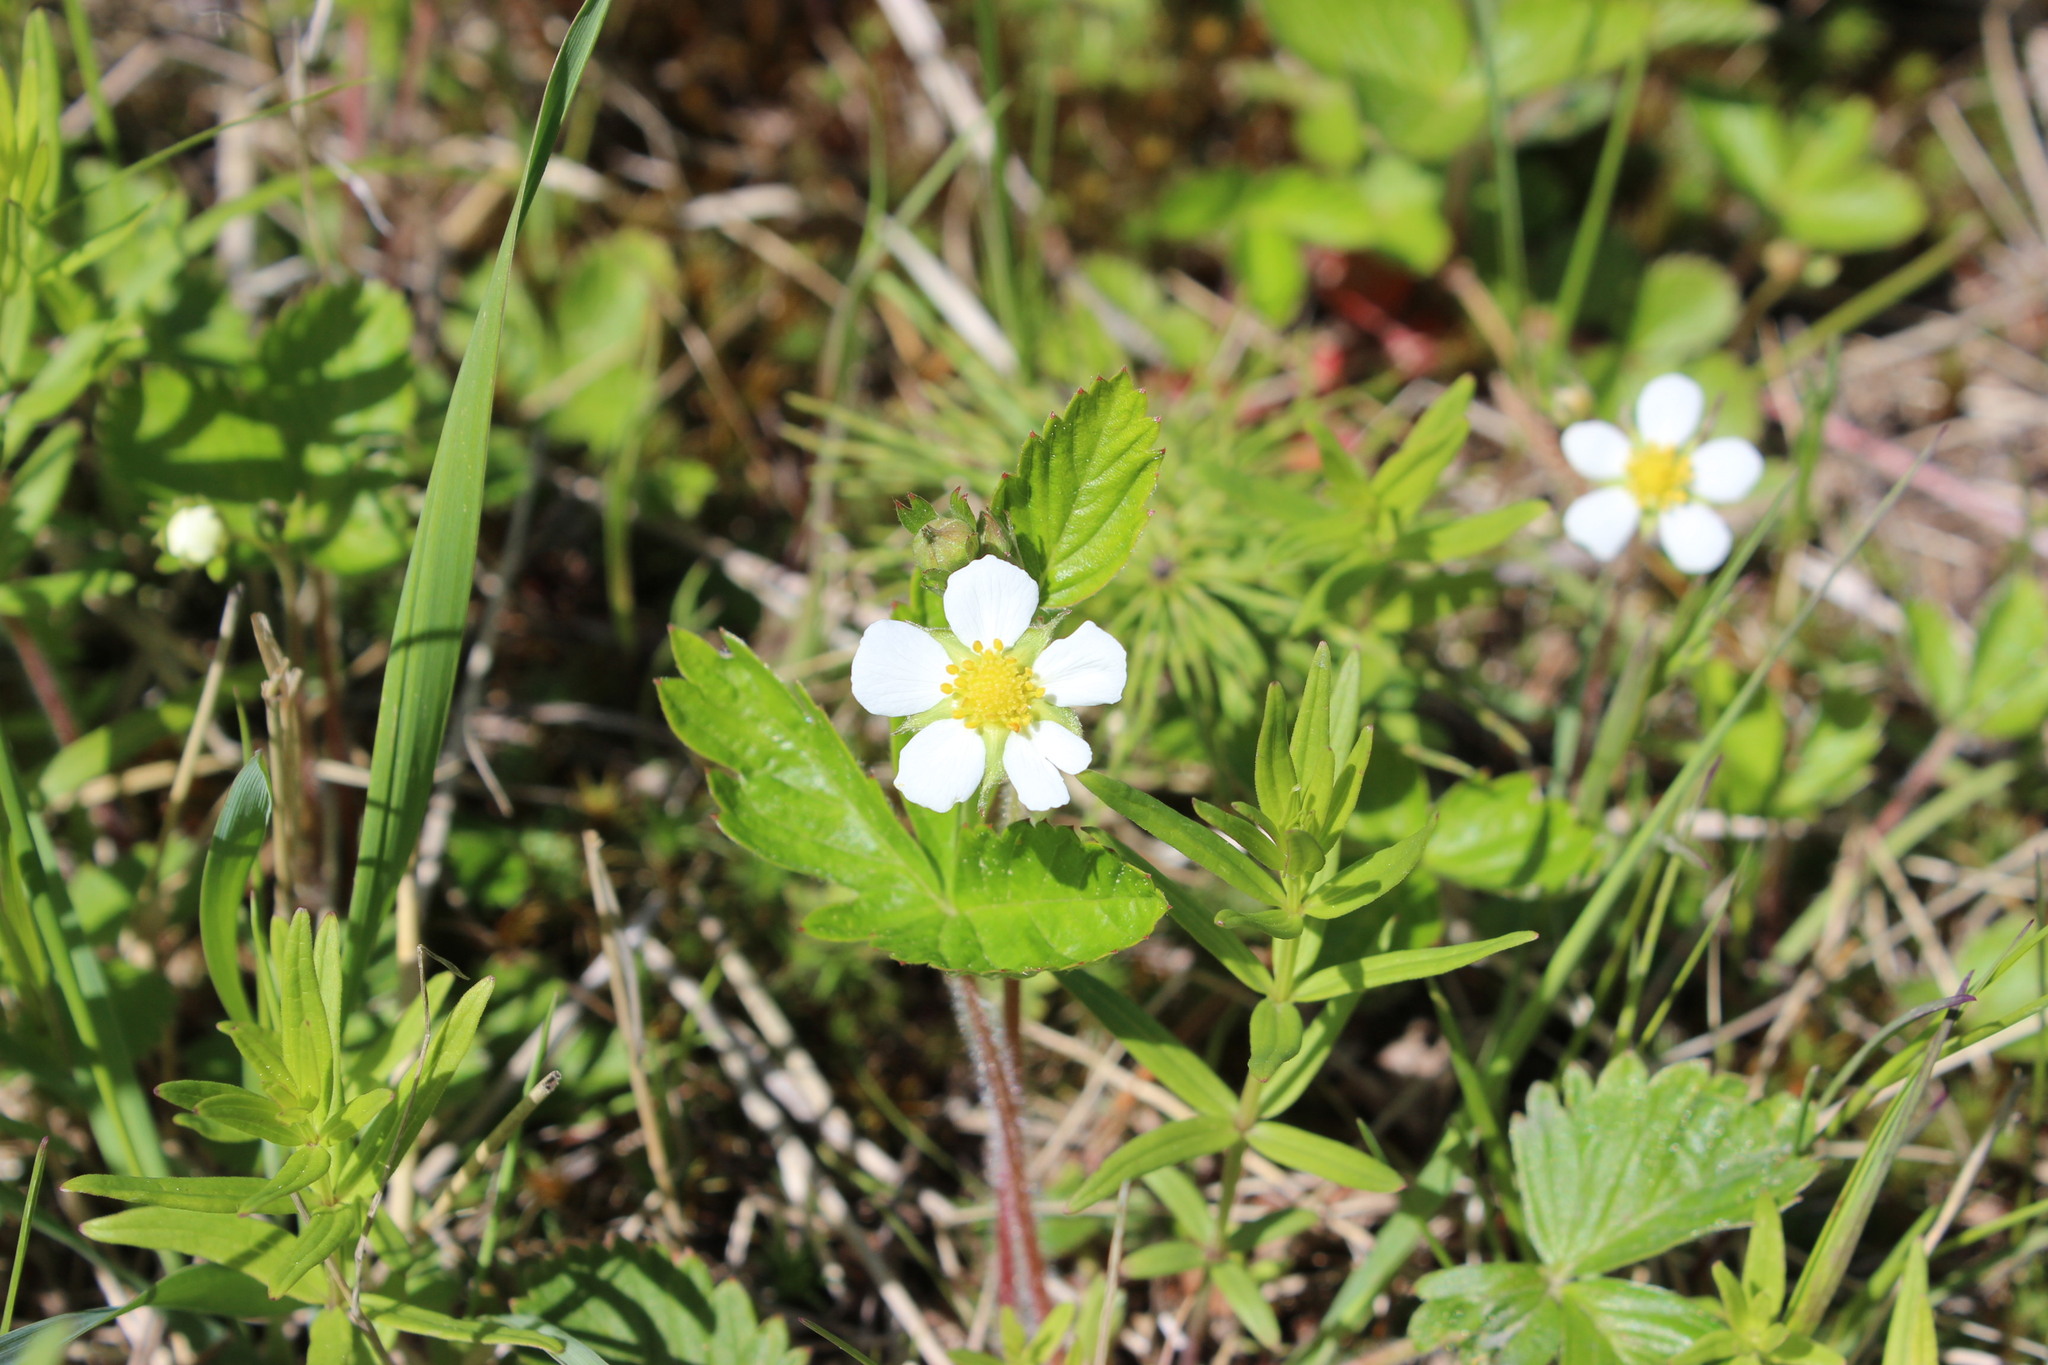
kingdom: Plantae
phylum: Tracheophyta
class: Magnoliopsida
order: Rosales
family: Rosaceae
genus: Fragaria
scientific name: Fragaria vesca
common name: Wild strawberry
